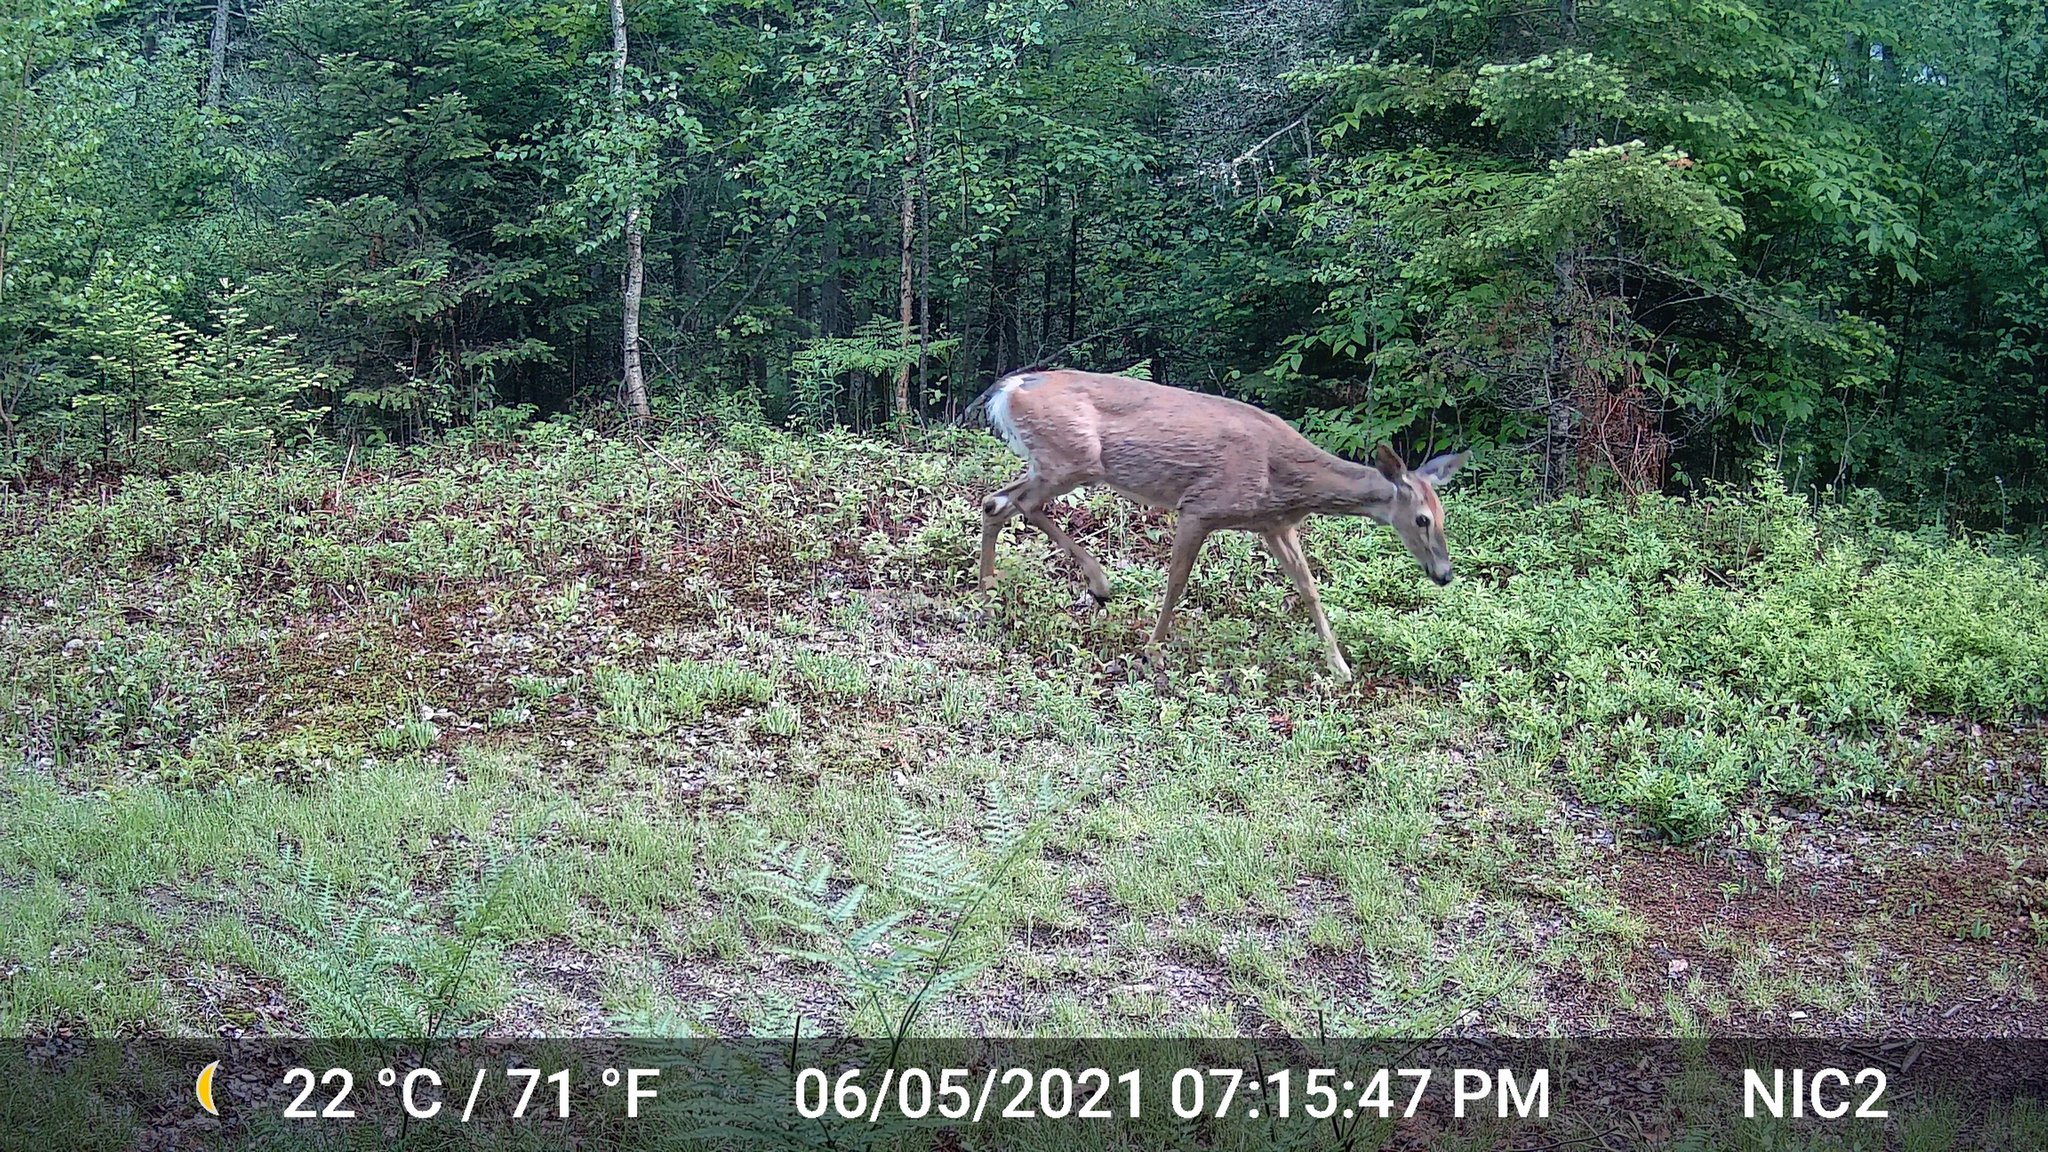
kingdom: Animalia
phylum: Chordata
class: Mammalia
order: Artiodactyla
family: Cervidae
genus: Odocoileus
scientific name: Odocoileus virginianus
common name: White-tailed deer
